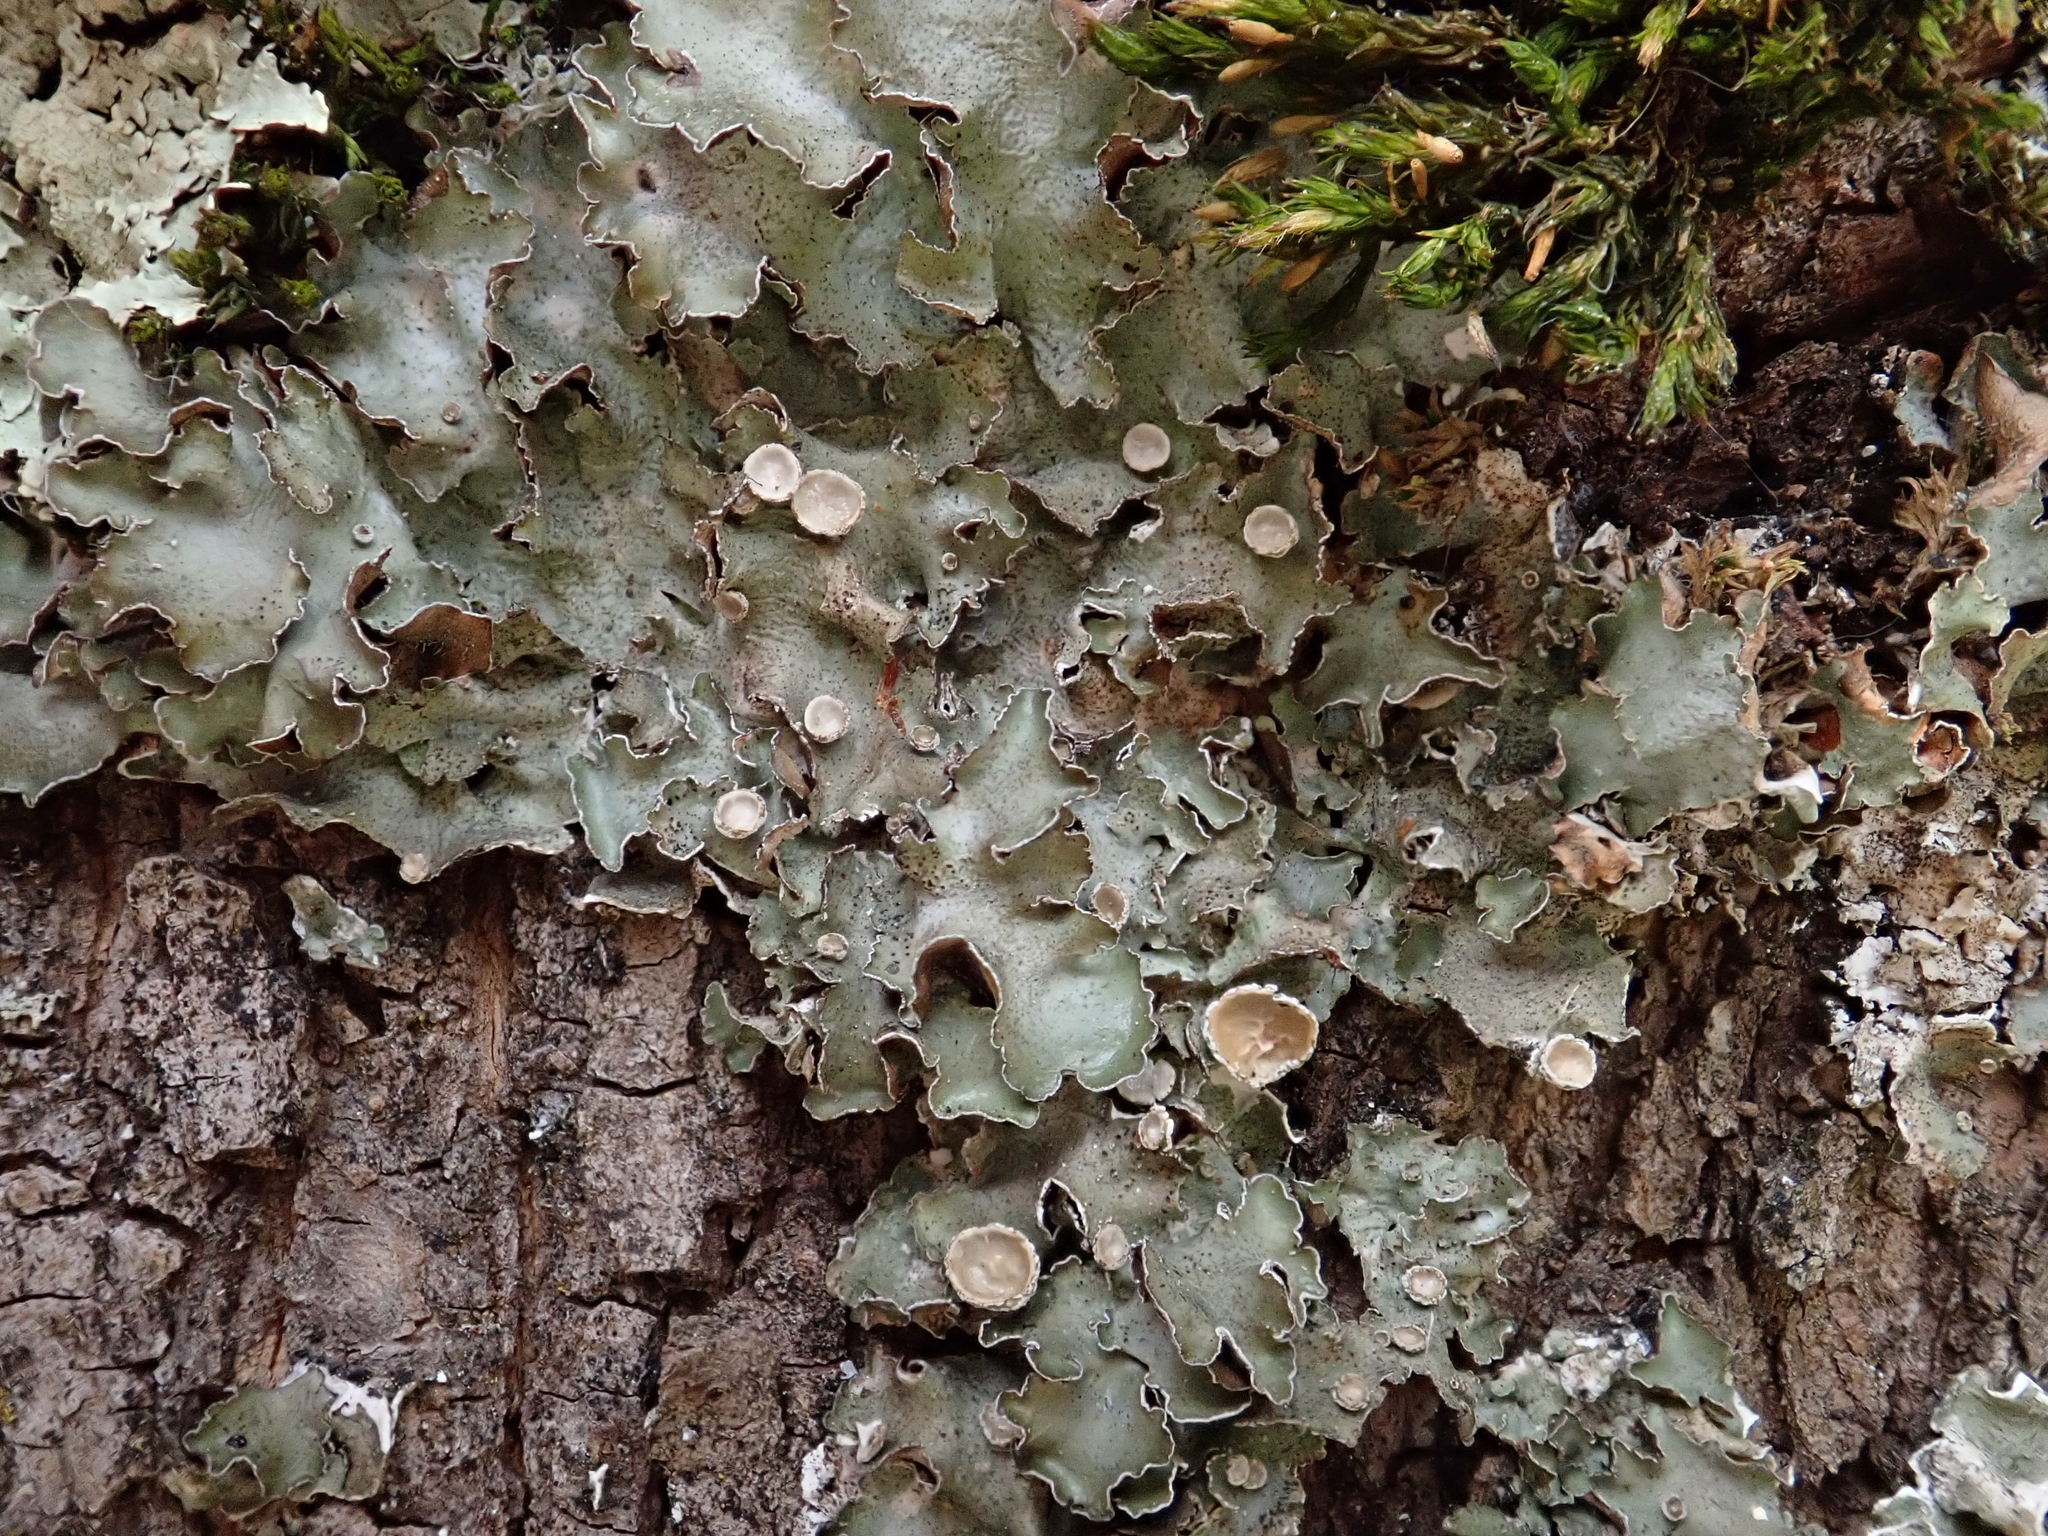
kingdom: Fungi
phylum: Ascomycota
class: Lecanoromycetes
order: Lecanorales
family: Parmeliaceae
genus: Pleurosticta
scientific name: Pleurosticta acetabulum
